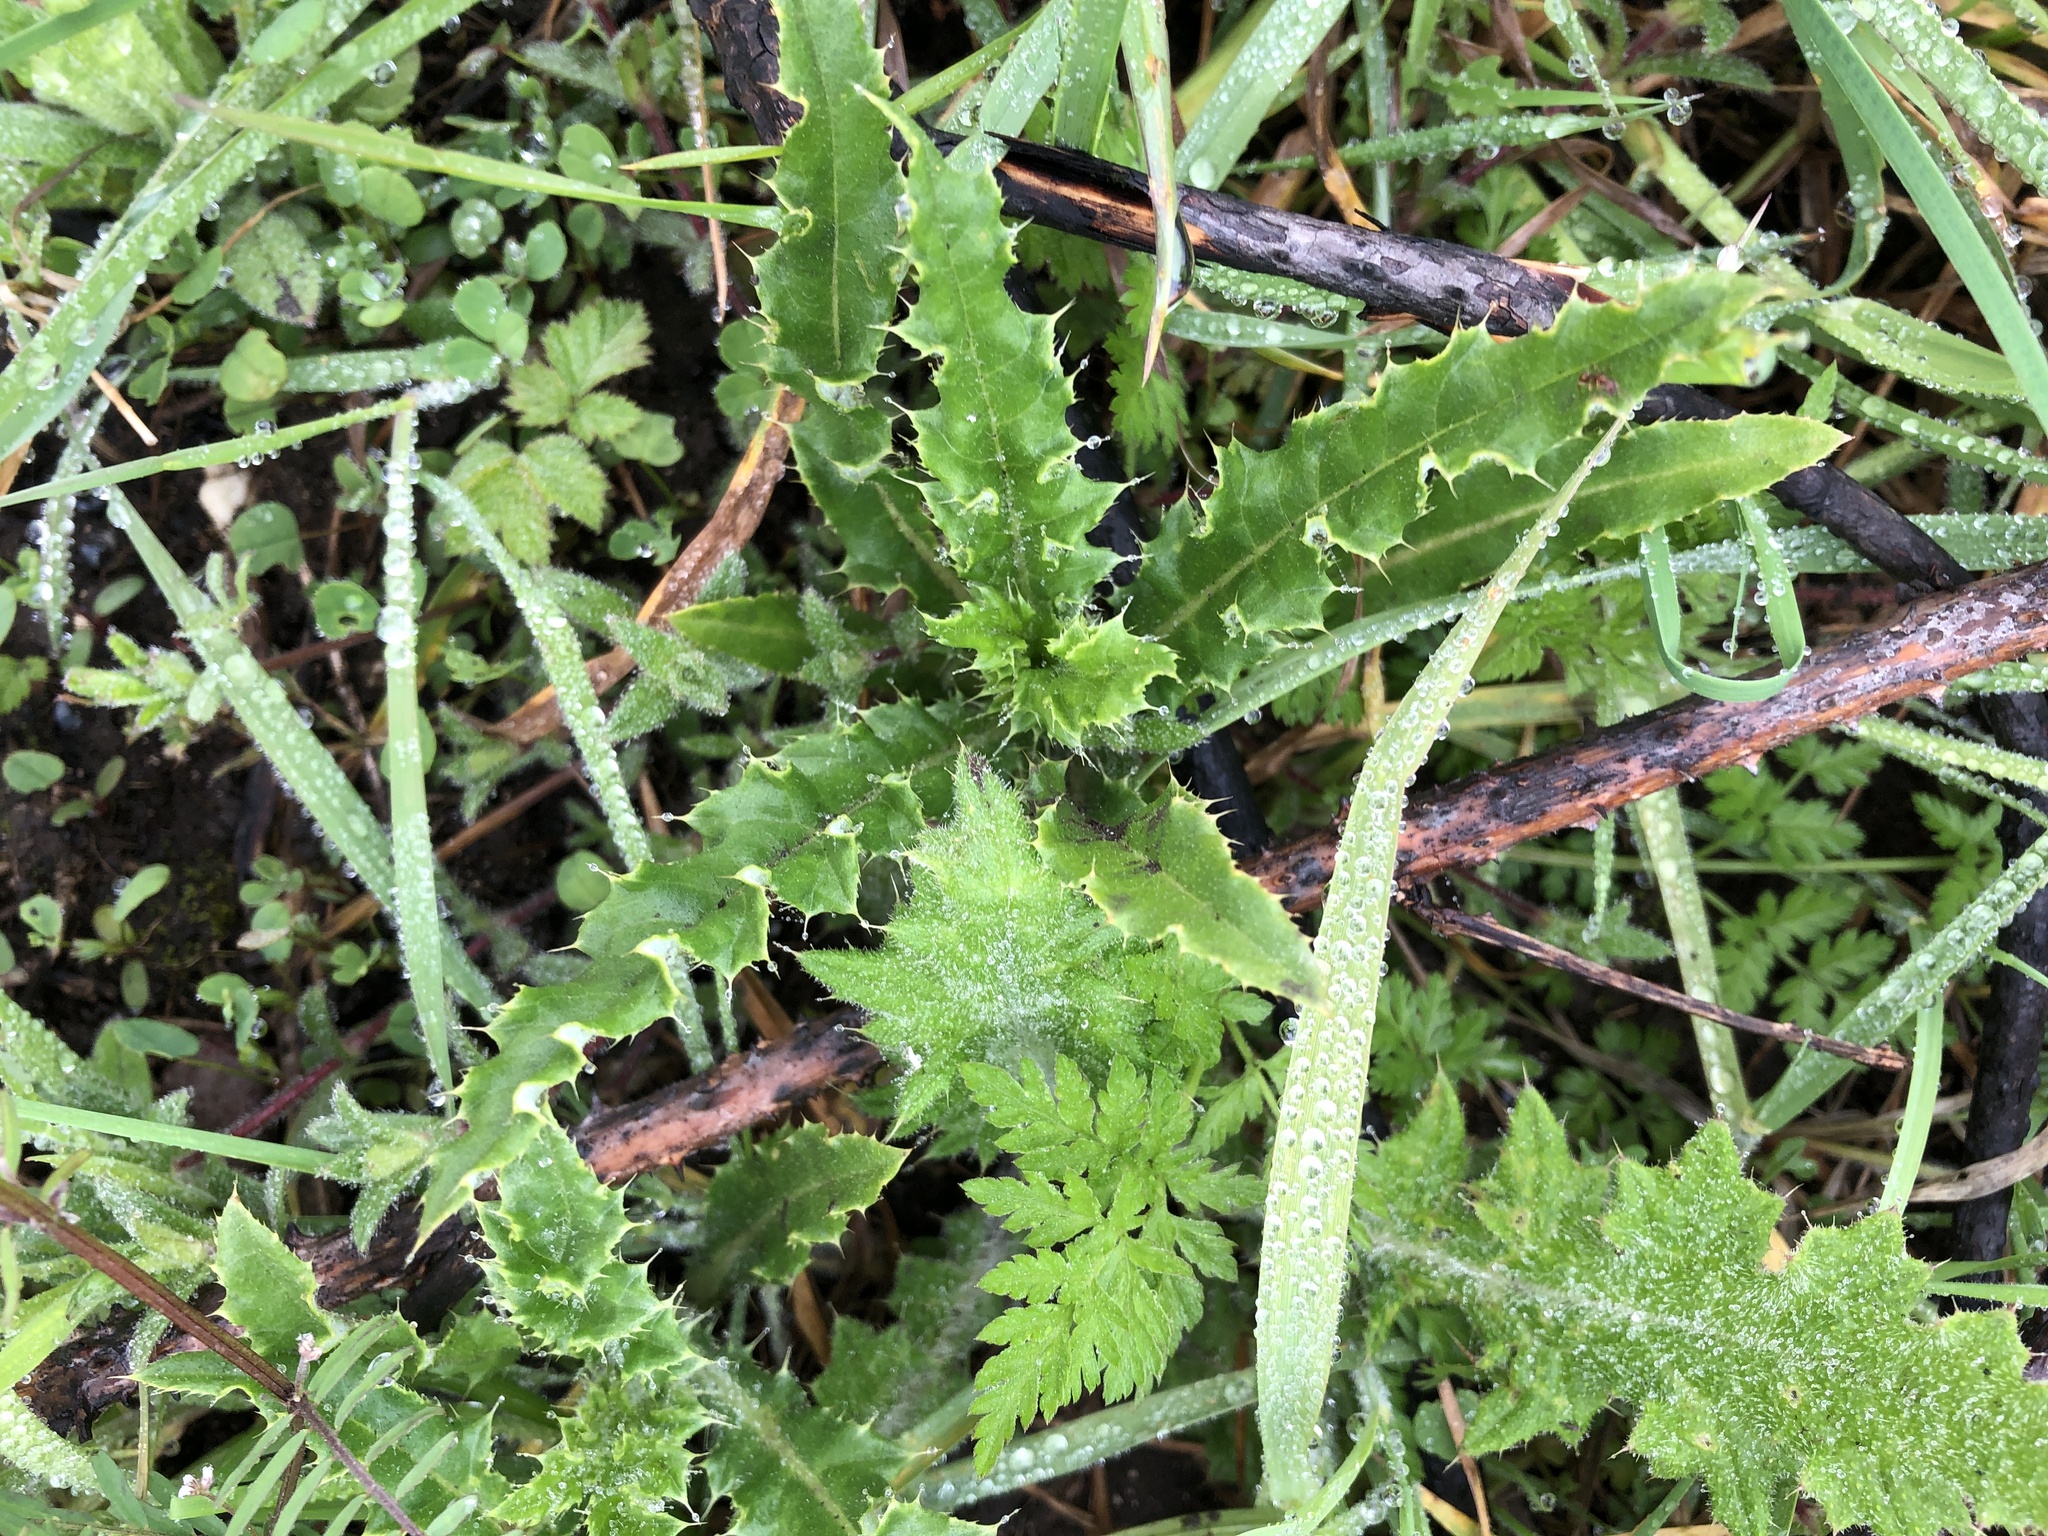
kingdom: Plantae
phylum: Tracheophyta
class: Magnoliopsida
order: Asterales
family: Asteraceae
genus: Cirsium
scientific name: Cirsium arvense
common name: Creeping thistle
